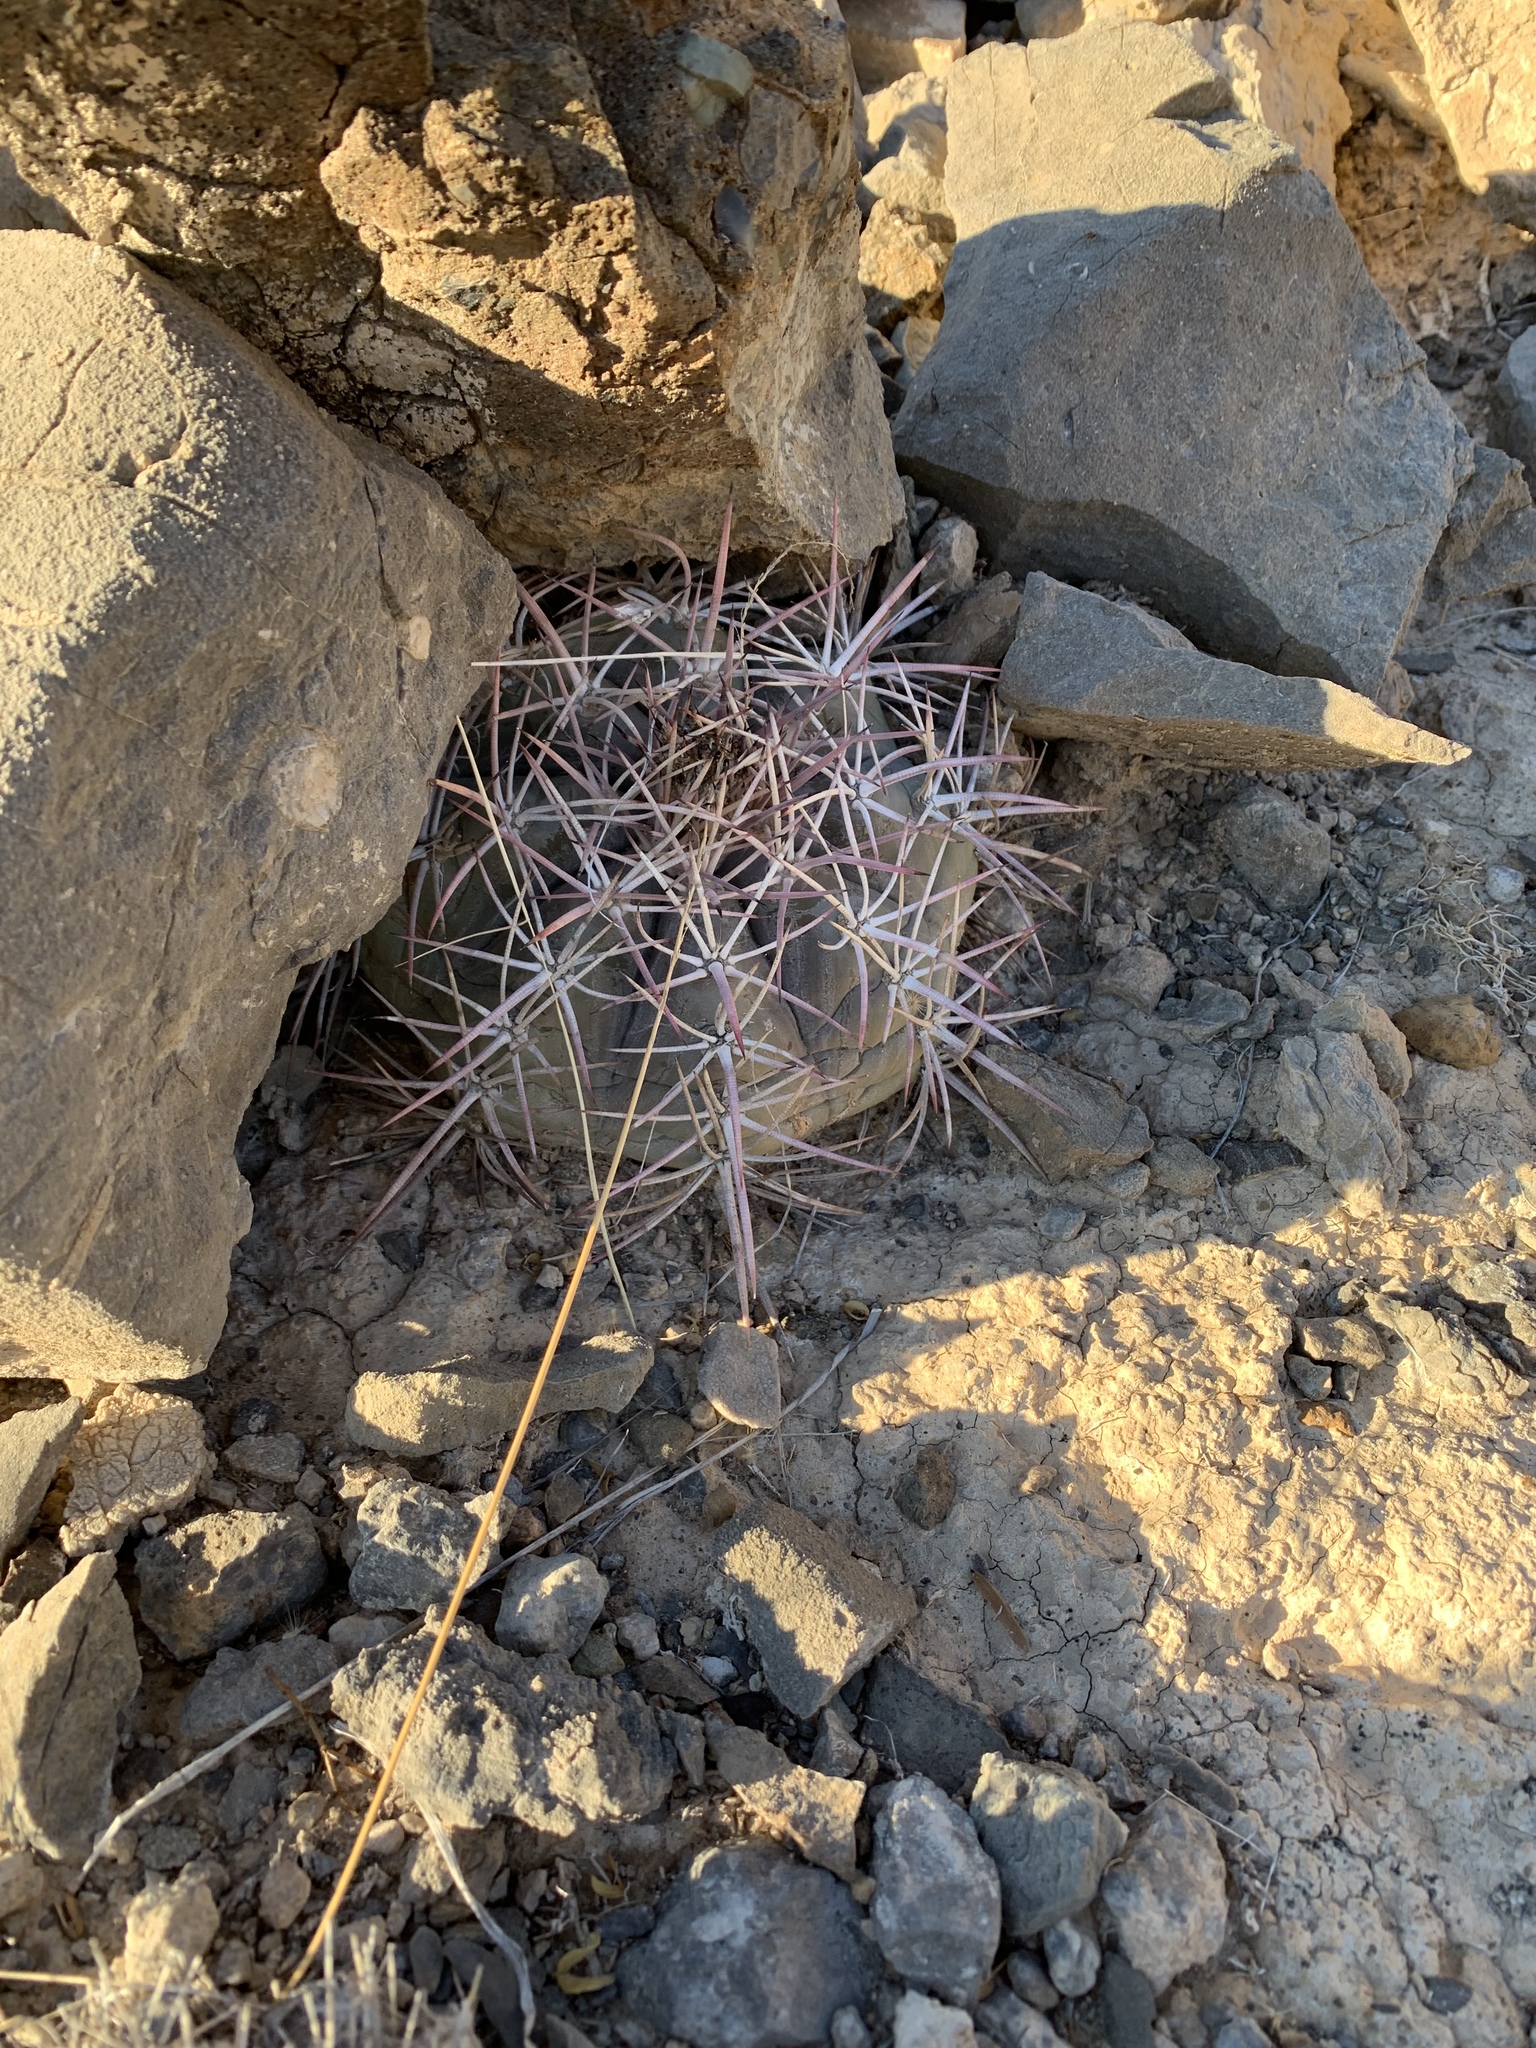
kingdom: Plantae
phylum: Tracheophyta
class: Magnoliopsida
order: Caryophyllales
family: Cactaceae
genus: Echinocactus
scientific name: Echinocactus horizonthalonius
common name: Devilshead
